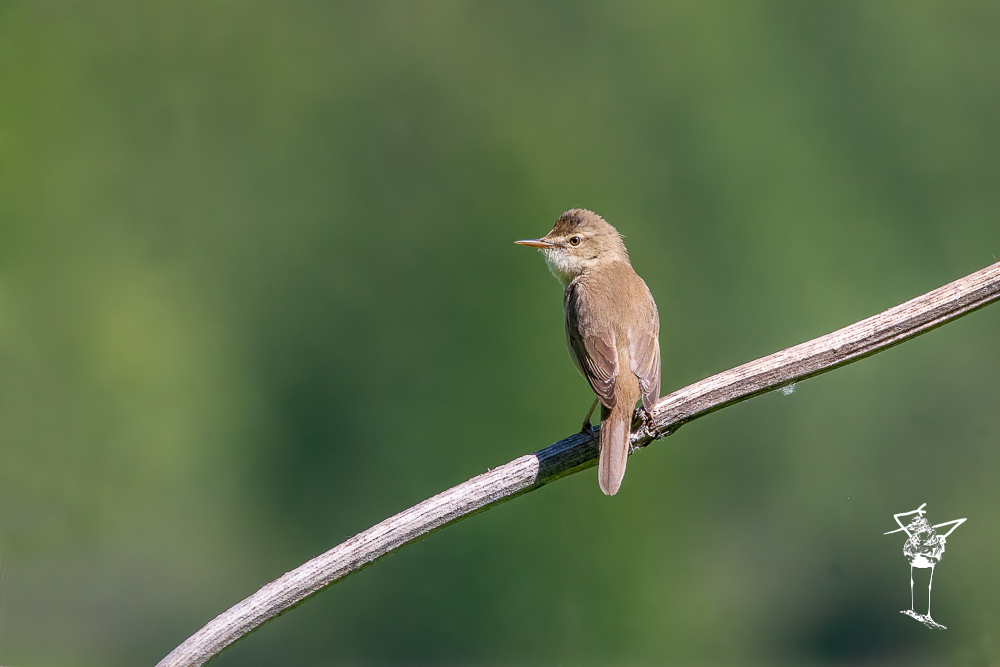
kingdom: Animalia
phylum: Chordata
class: Aves
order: Passeriformes
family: Acrocephalidae
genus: Acrocephalus
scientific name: Acrocephalus palustris
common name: Marsh warbler
